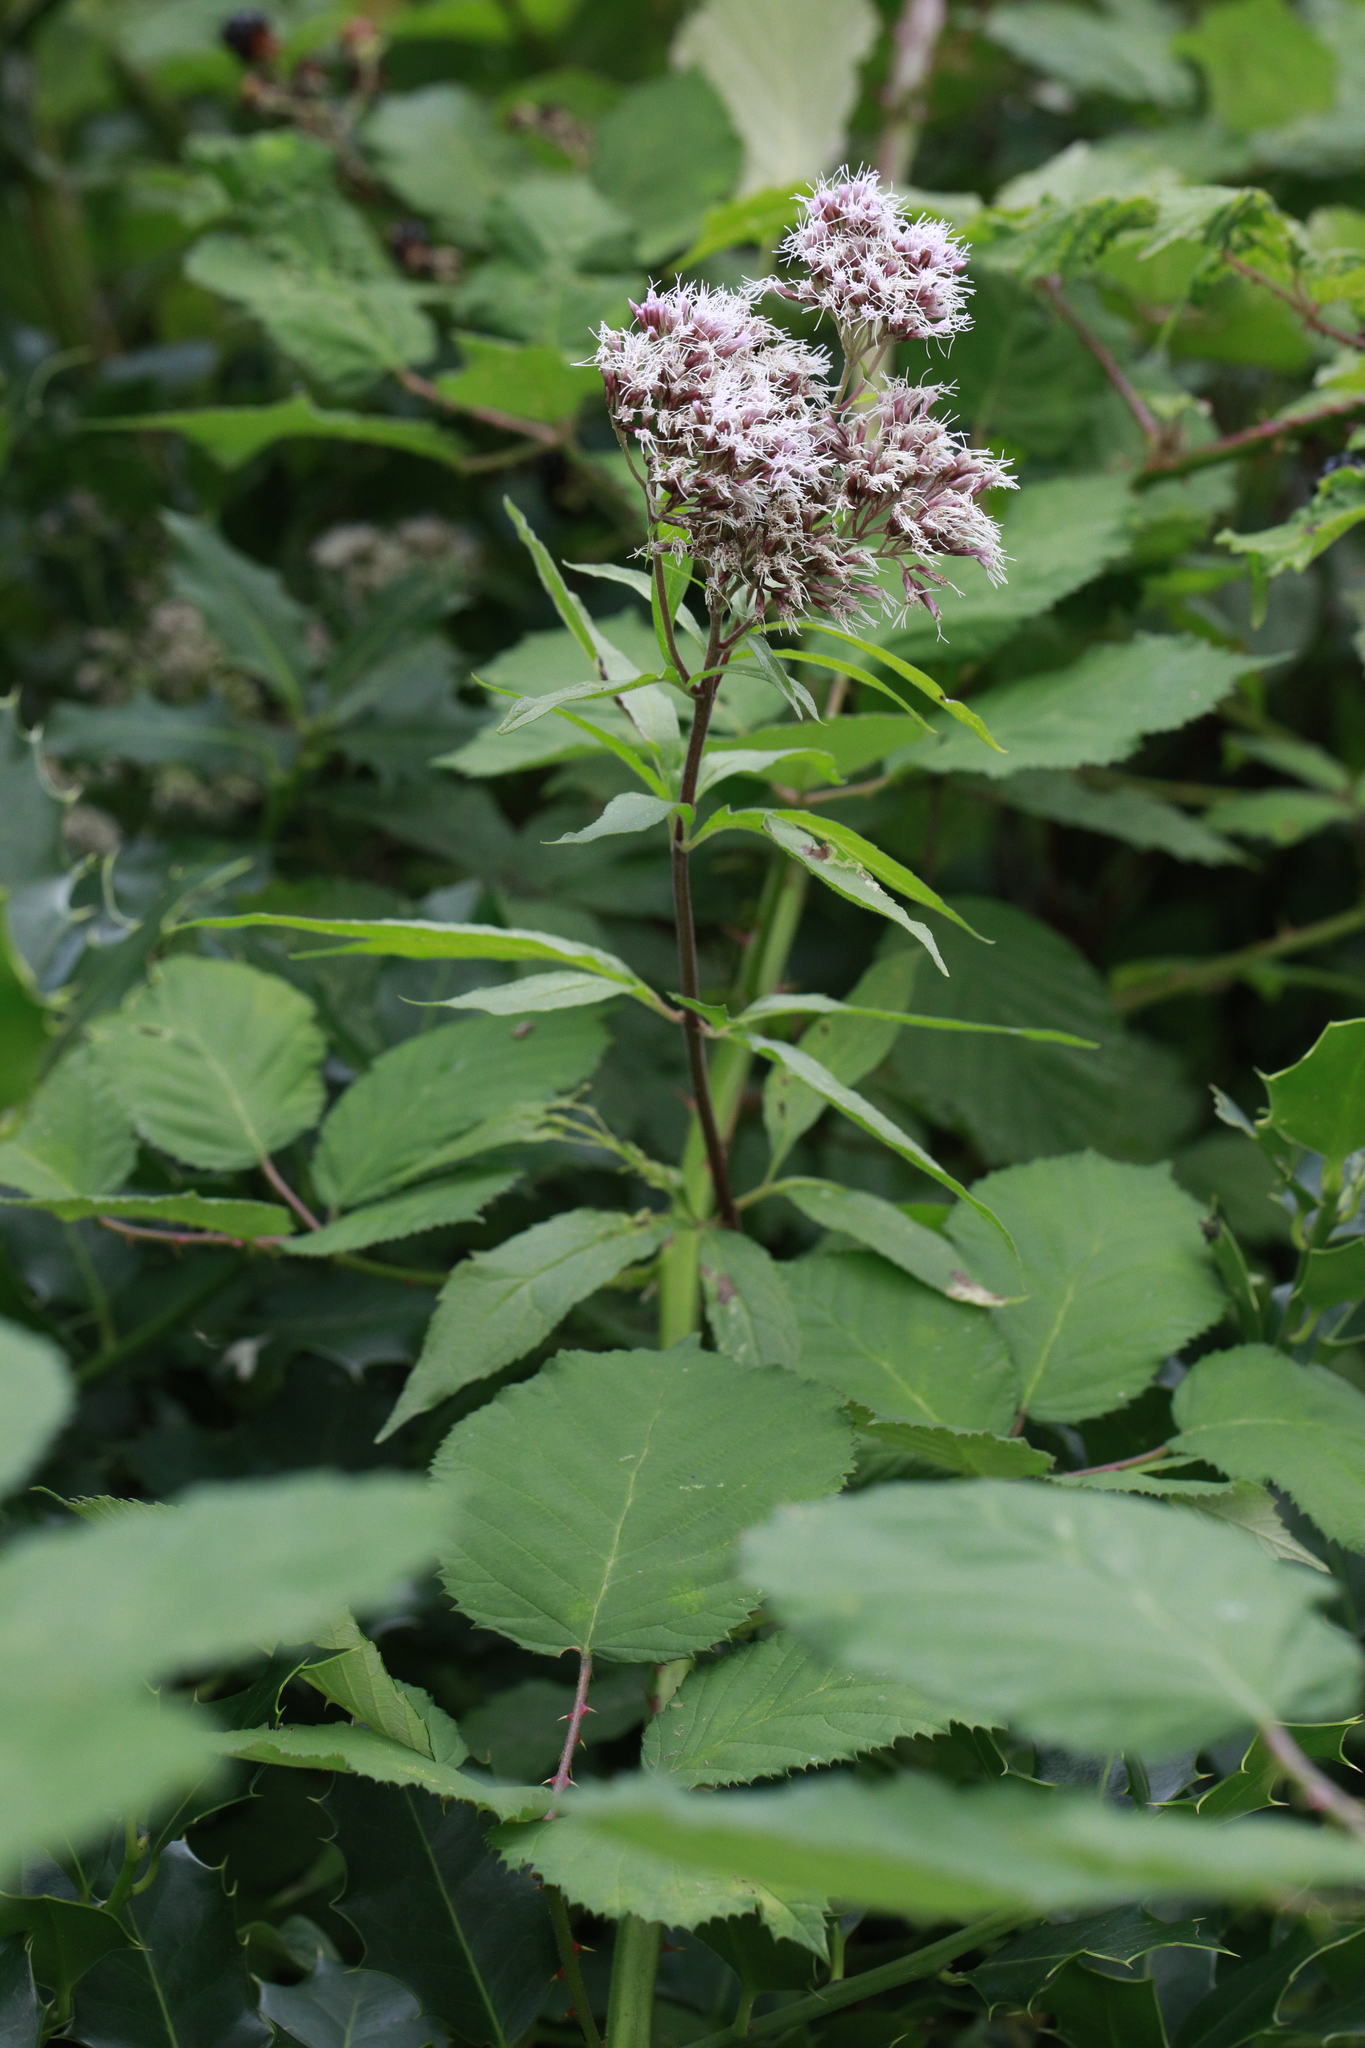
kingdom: Plantae
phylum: Tracheophyta
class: Magnoliopsida
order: Asterales
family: Asteraceae
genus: Eupatorium
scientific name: Eupatorium cannabinum
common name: Hemp-agrimony
